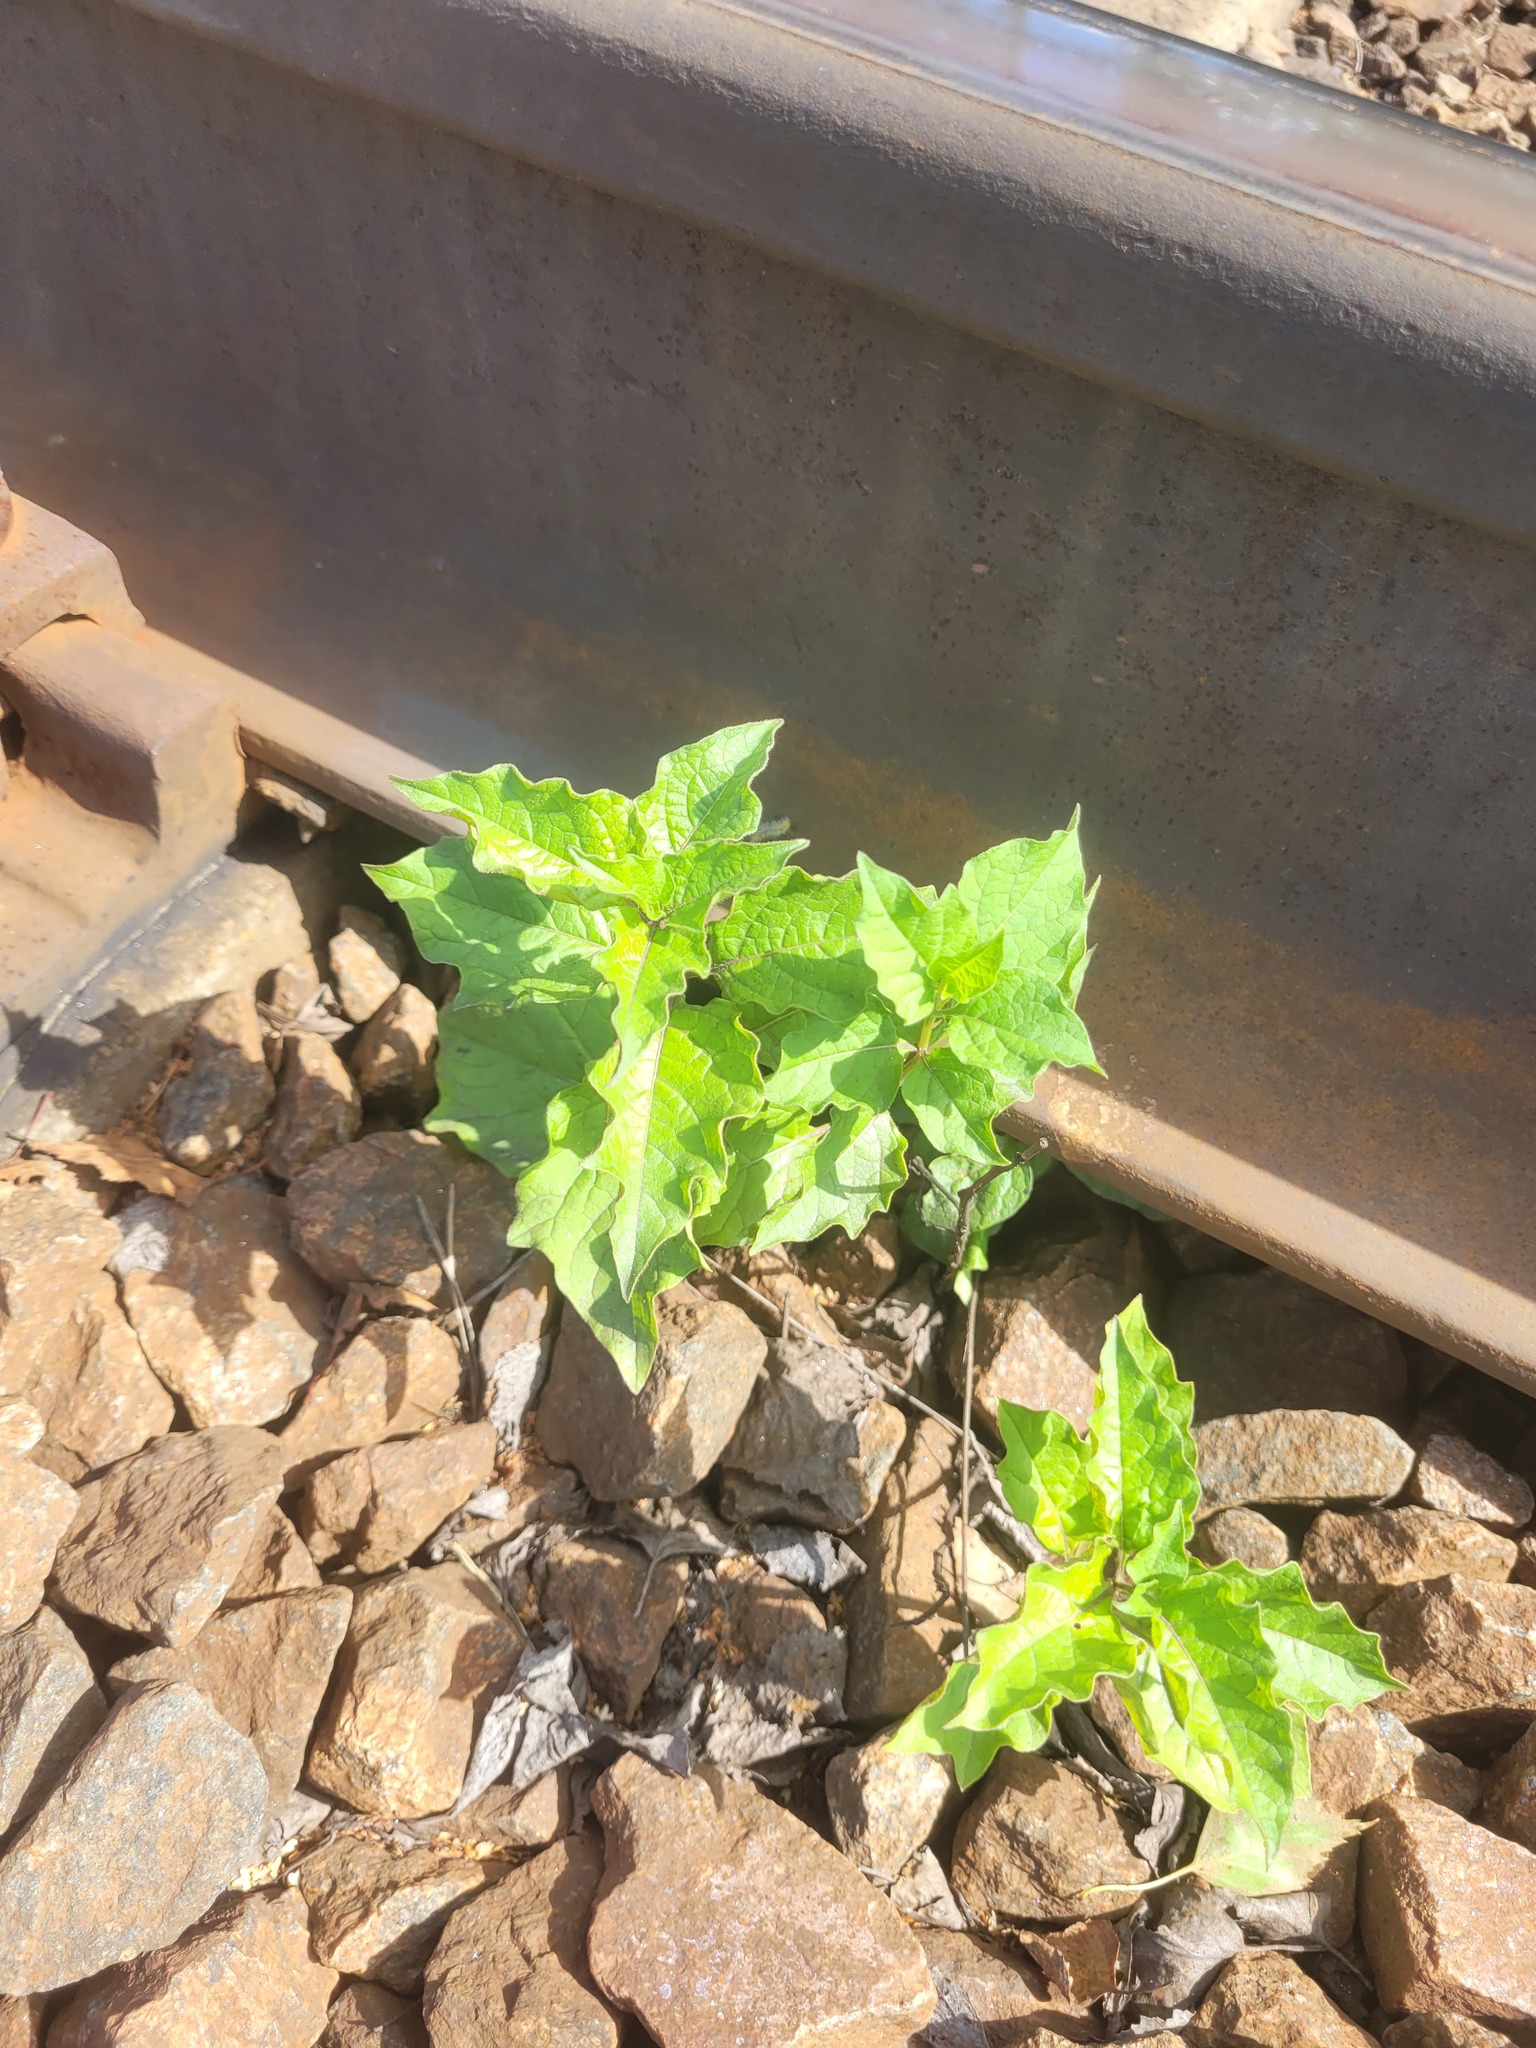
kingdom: Plantae
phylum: Tracheophyta
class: Magnoliopsida
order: Solanales
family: Solanaceae
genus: Solanum
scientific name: Solanum nigrum
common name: Black nightshade
